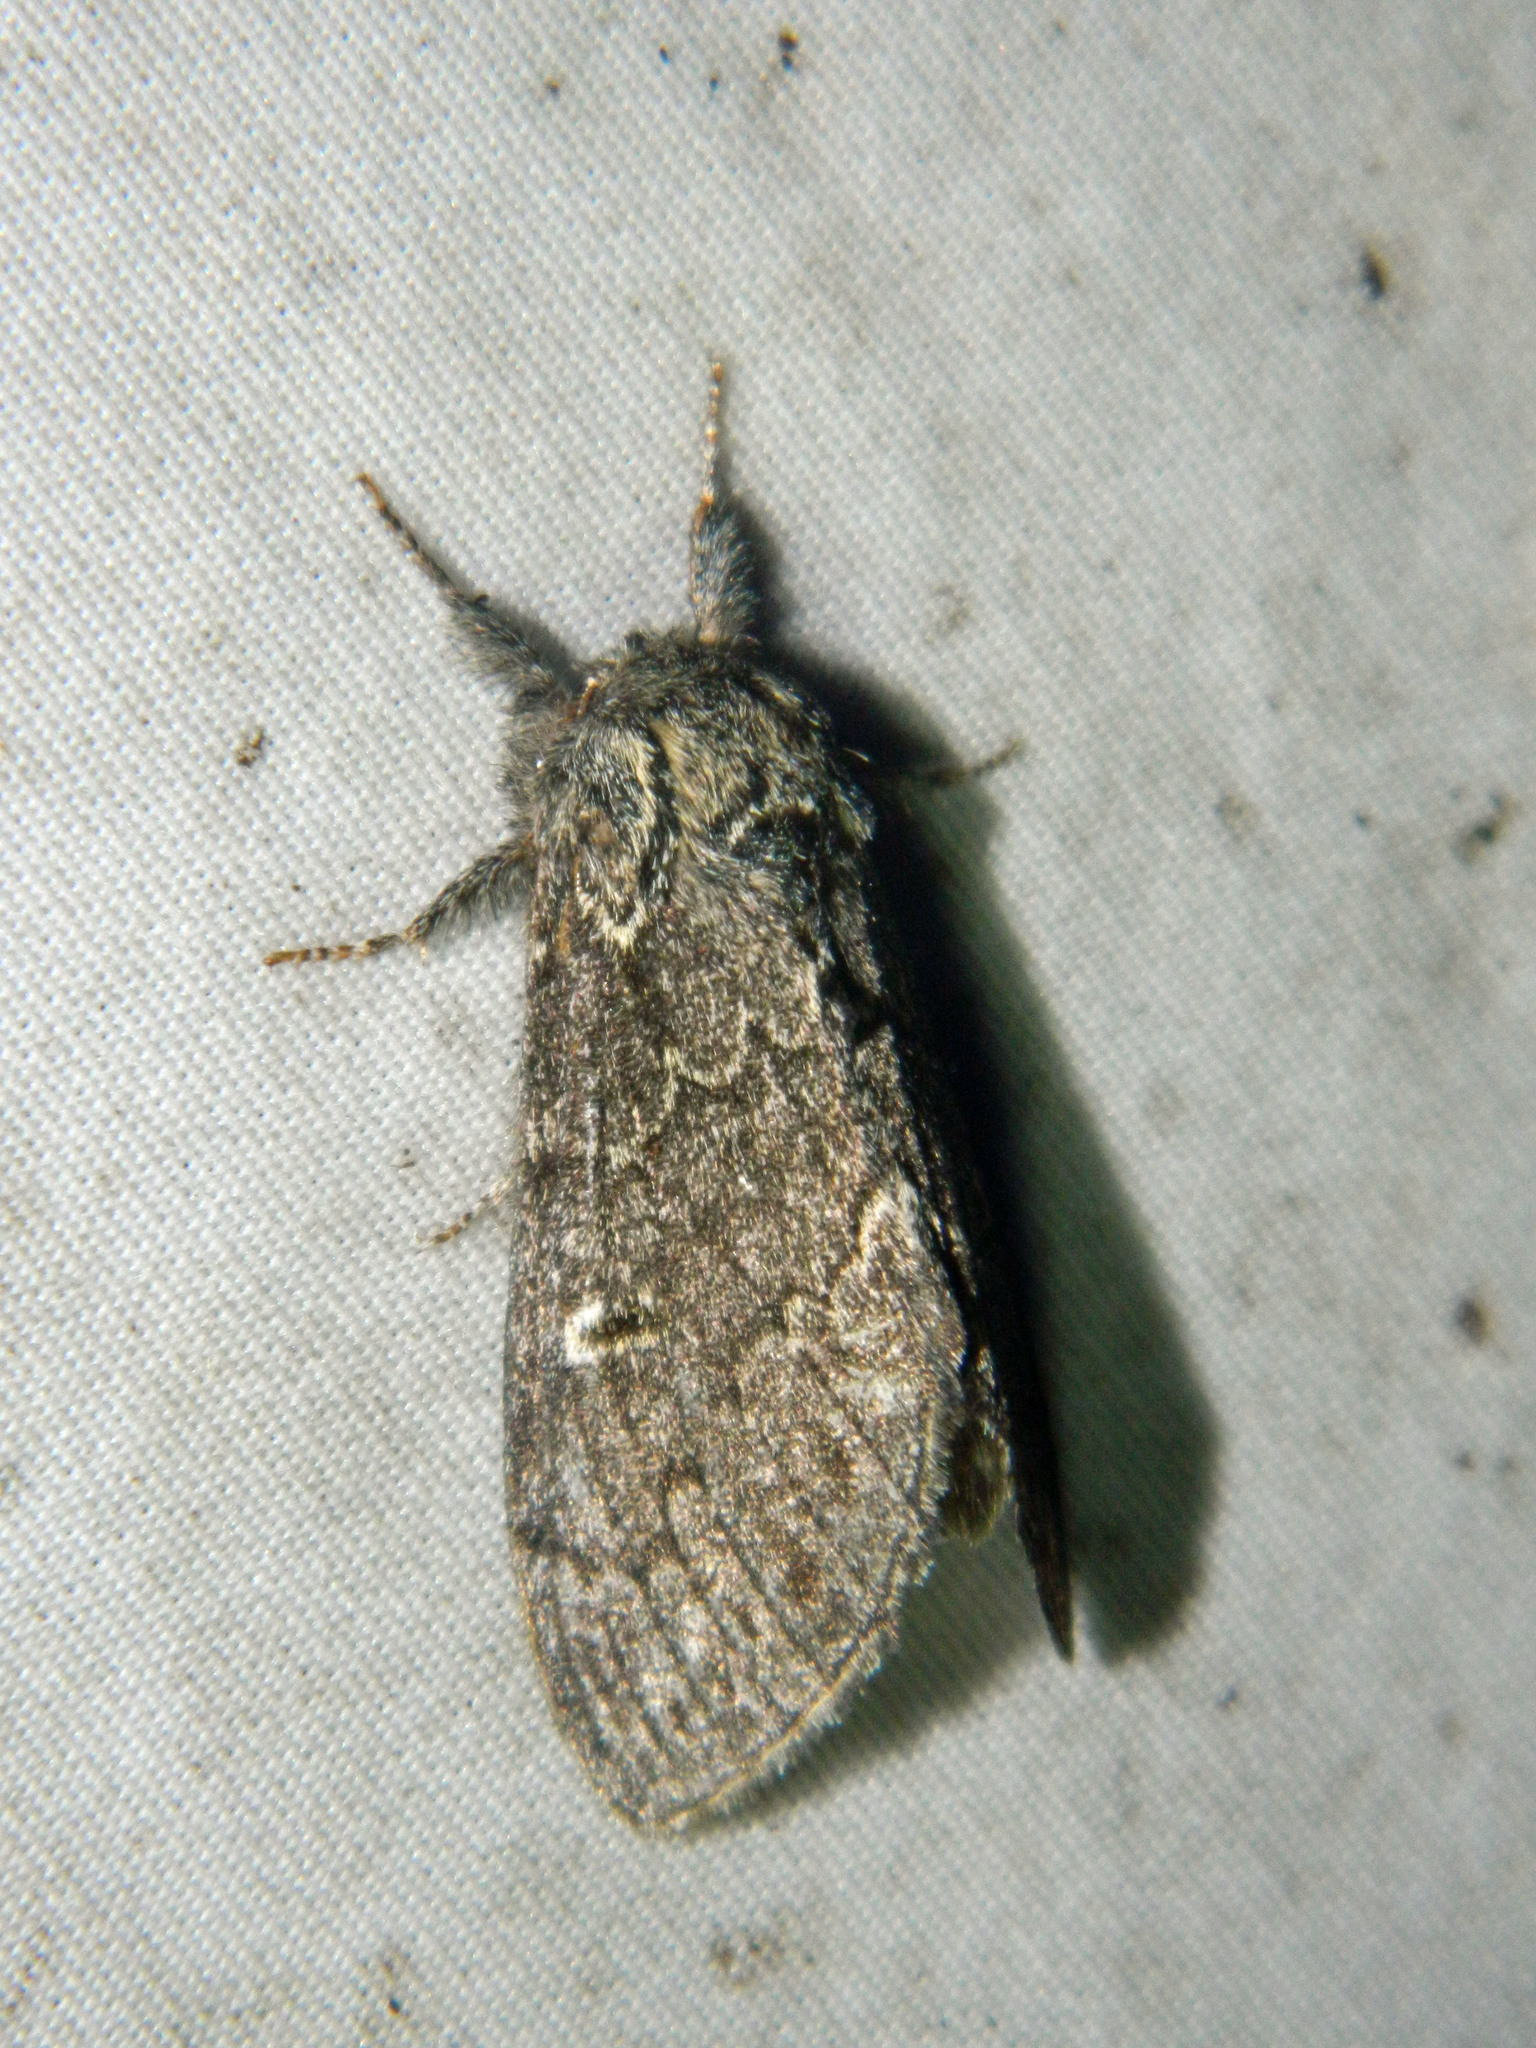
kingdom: Animalia
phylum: Arthropoda
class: Insecta
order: Lepidoptera
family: Notodontidae
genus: Notodonta
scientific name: Notodonta torva
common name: Large dark prominent
